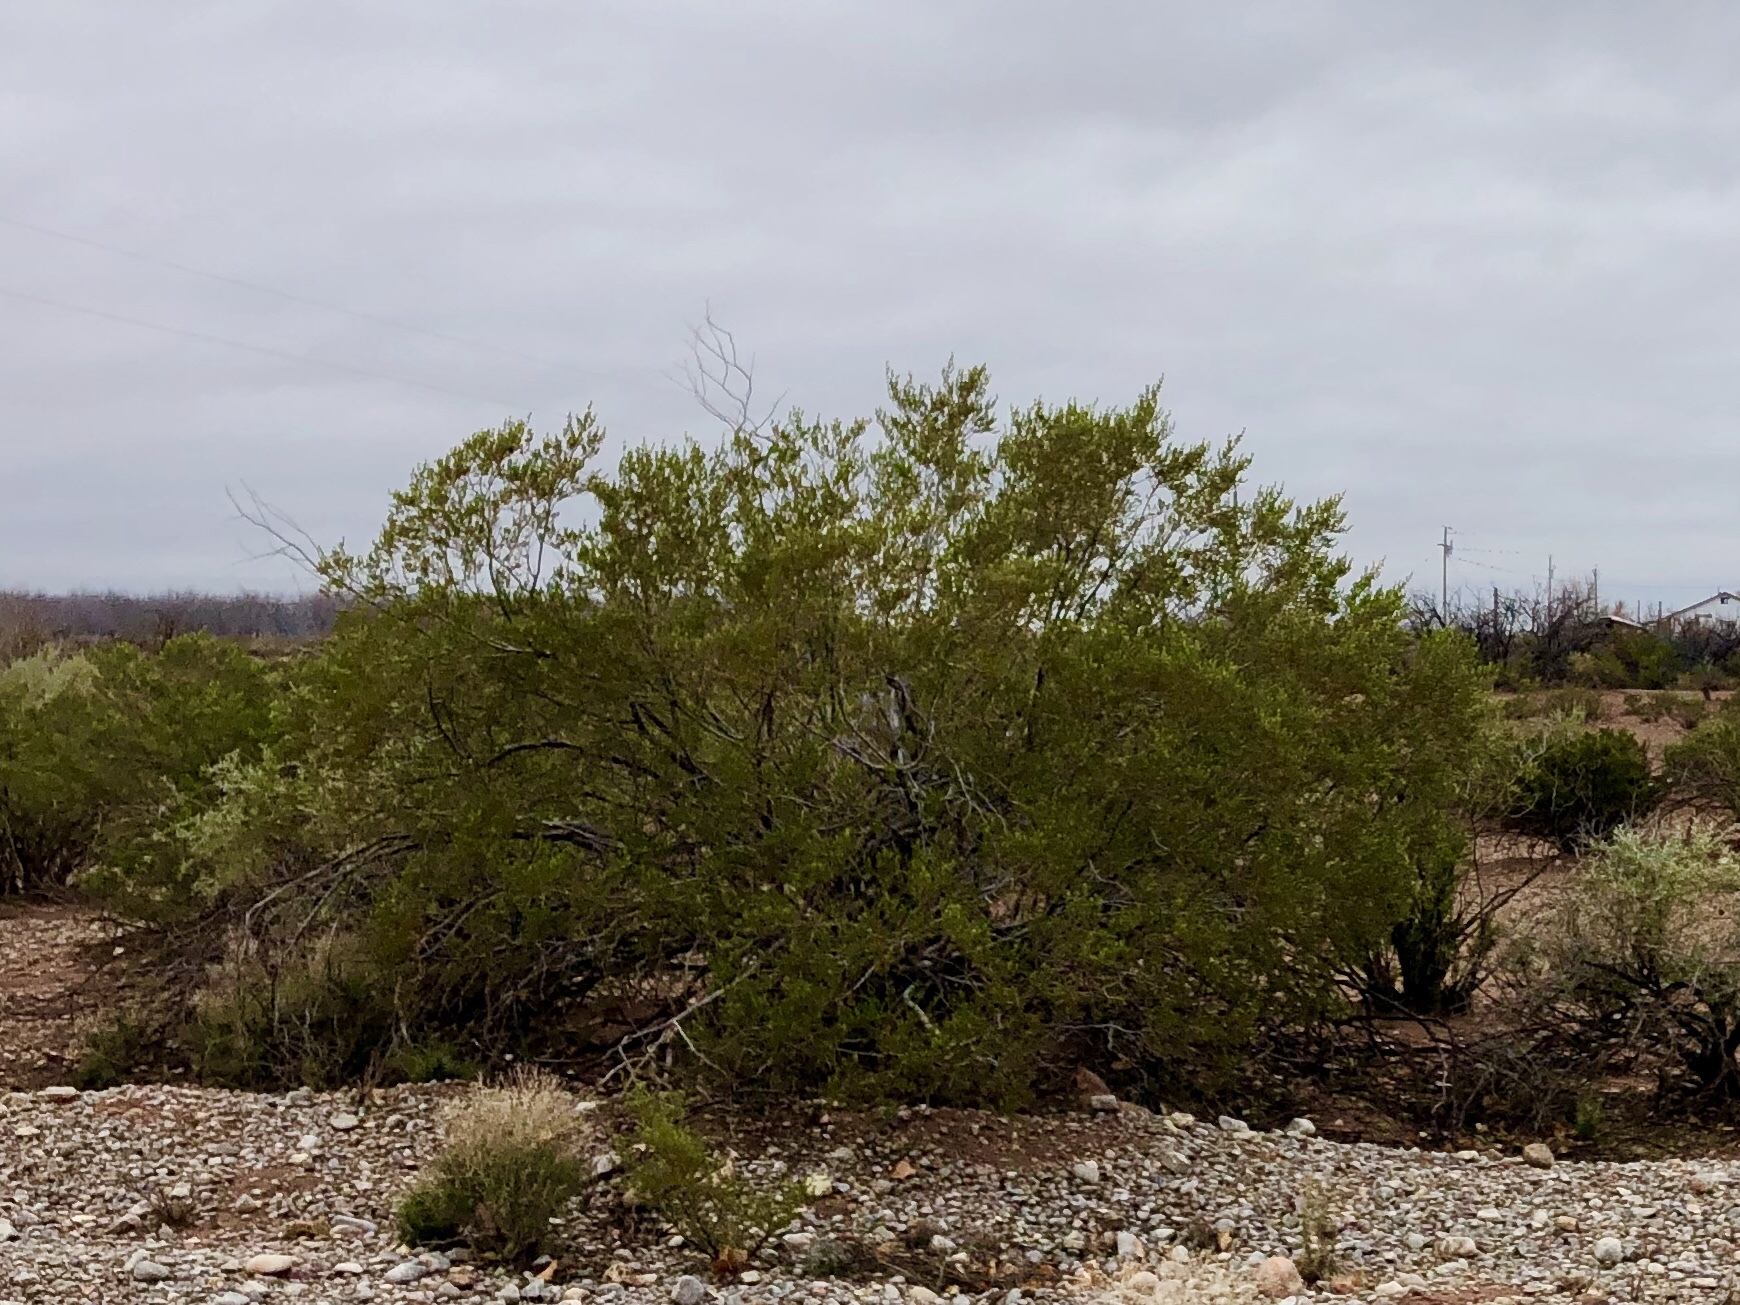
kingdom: Plantae
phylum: Tracheophyta
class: Magnoliopsida
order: Zygophyllales
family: Zygophyllaceae
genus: Larrea
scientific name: Larrea tridentata
